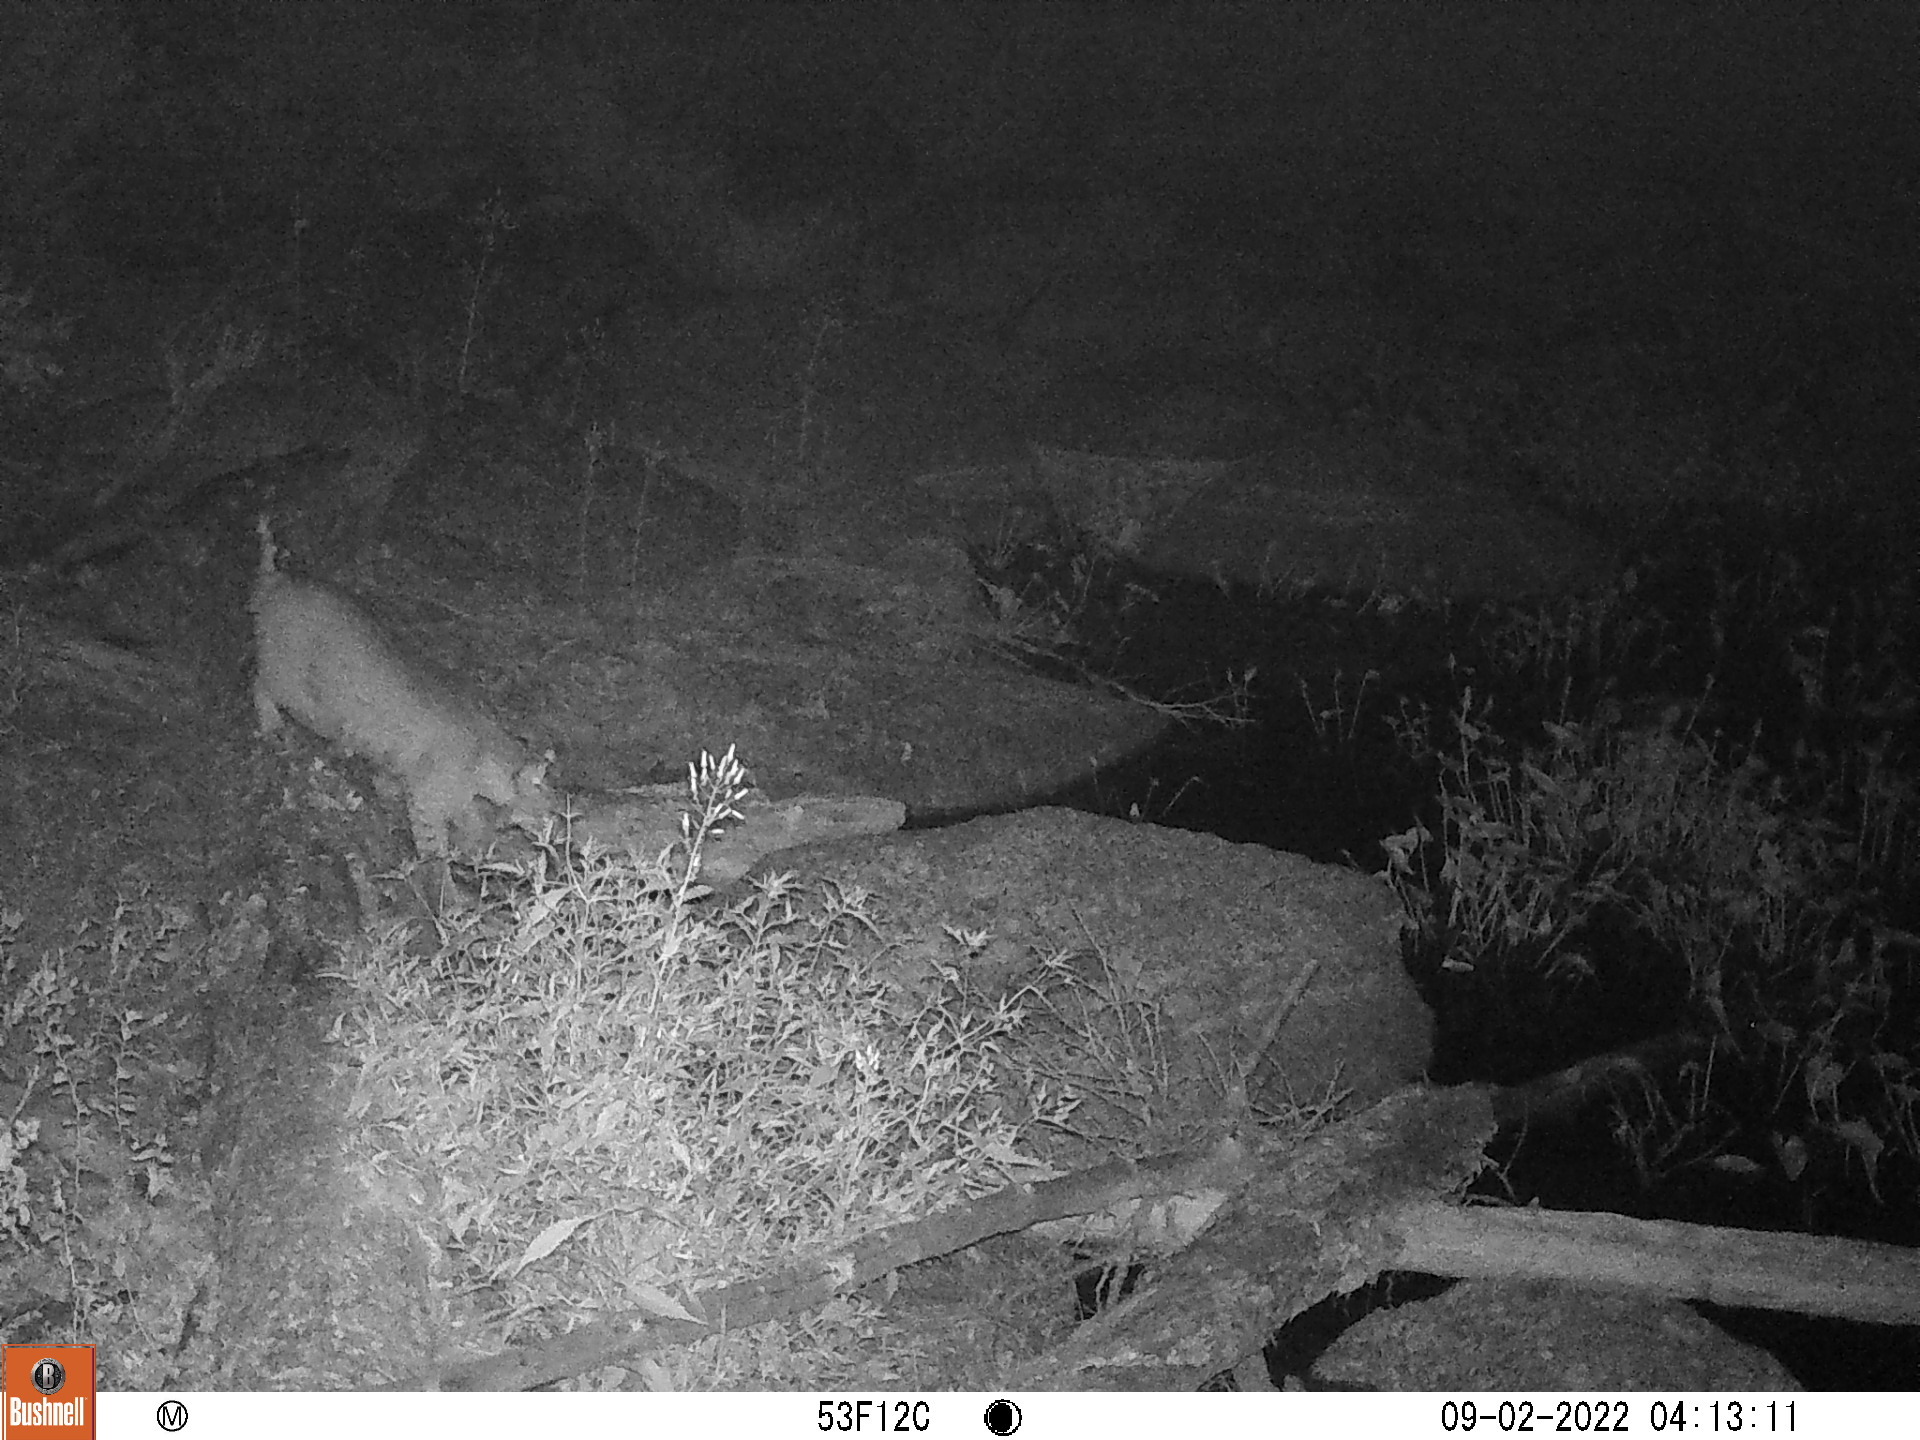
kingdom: Animalia
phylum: Chordata
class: Mammalia
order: Carnivora
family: Felidae
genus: Lynx
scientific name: Lynx rufus
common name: Bobcat
